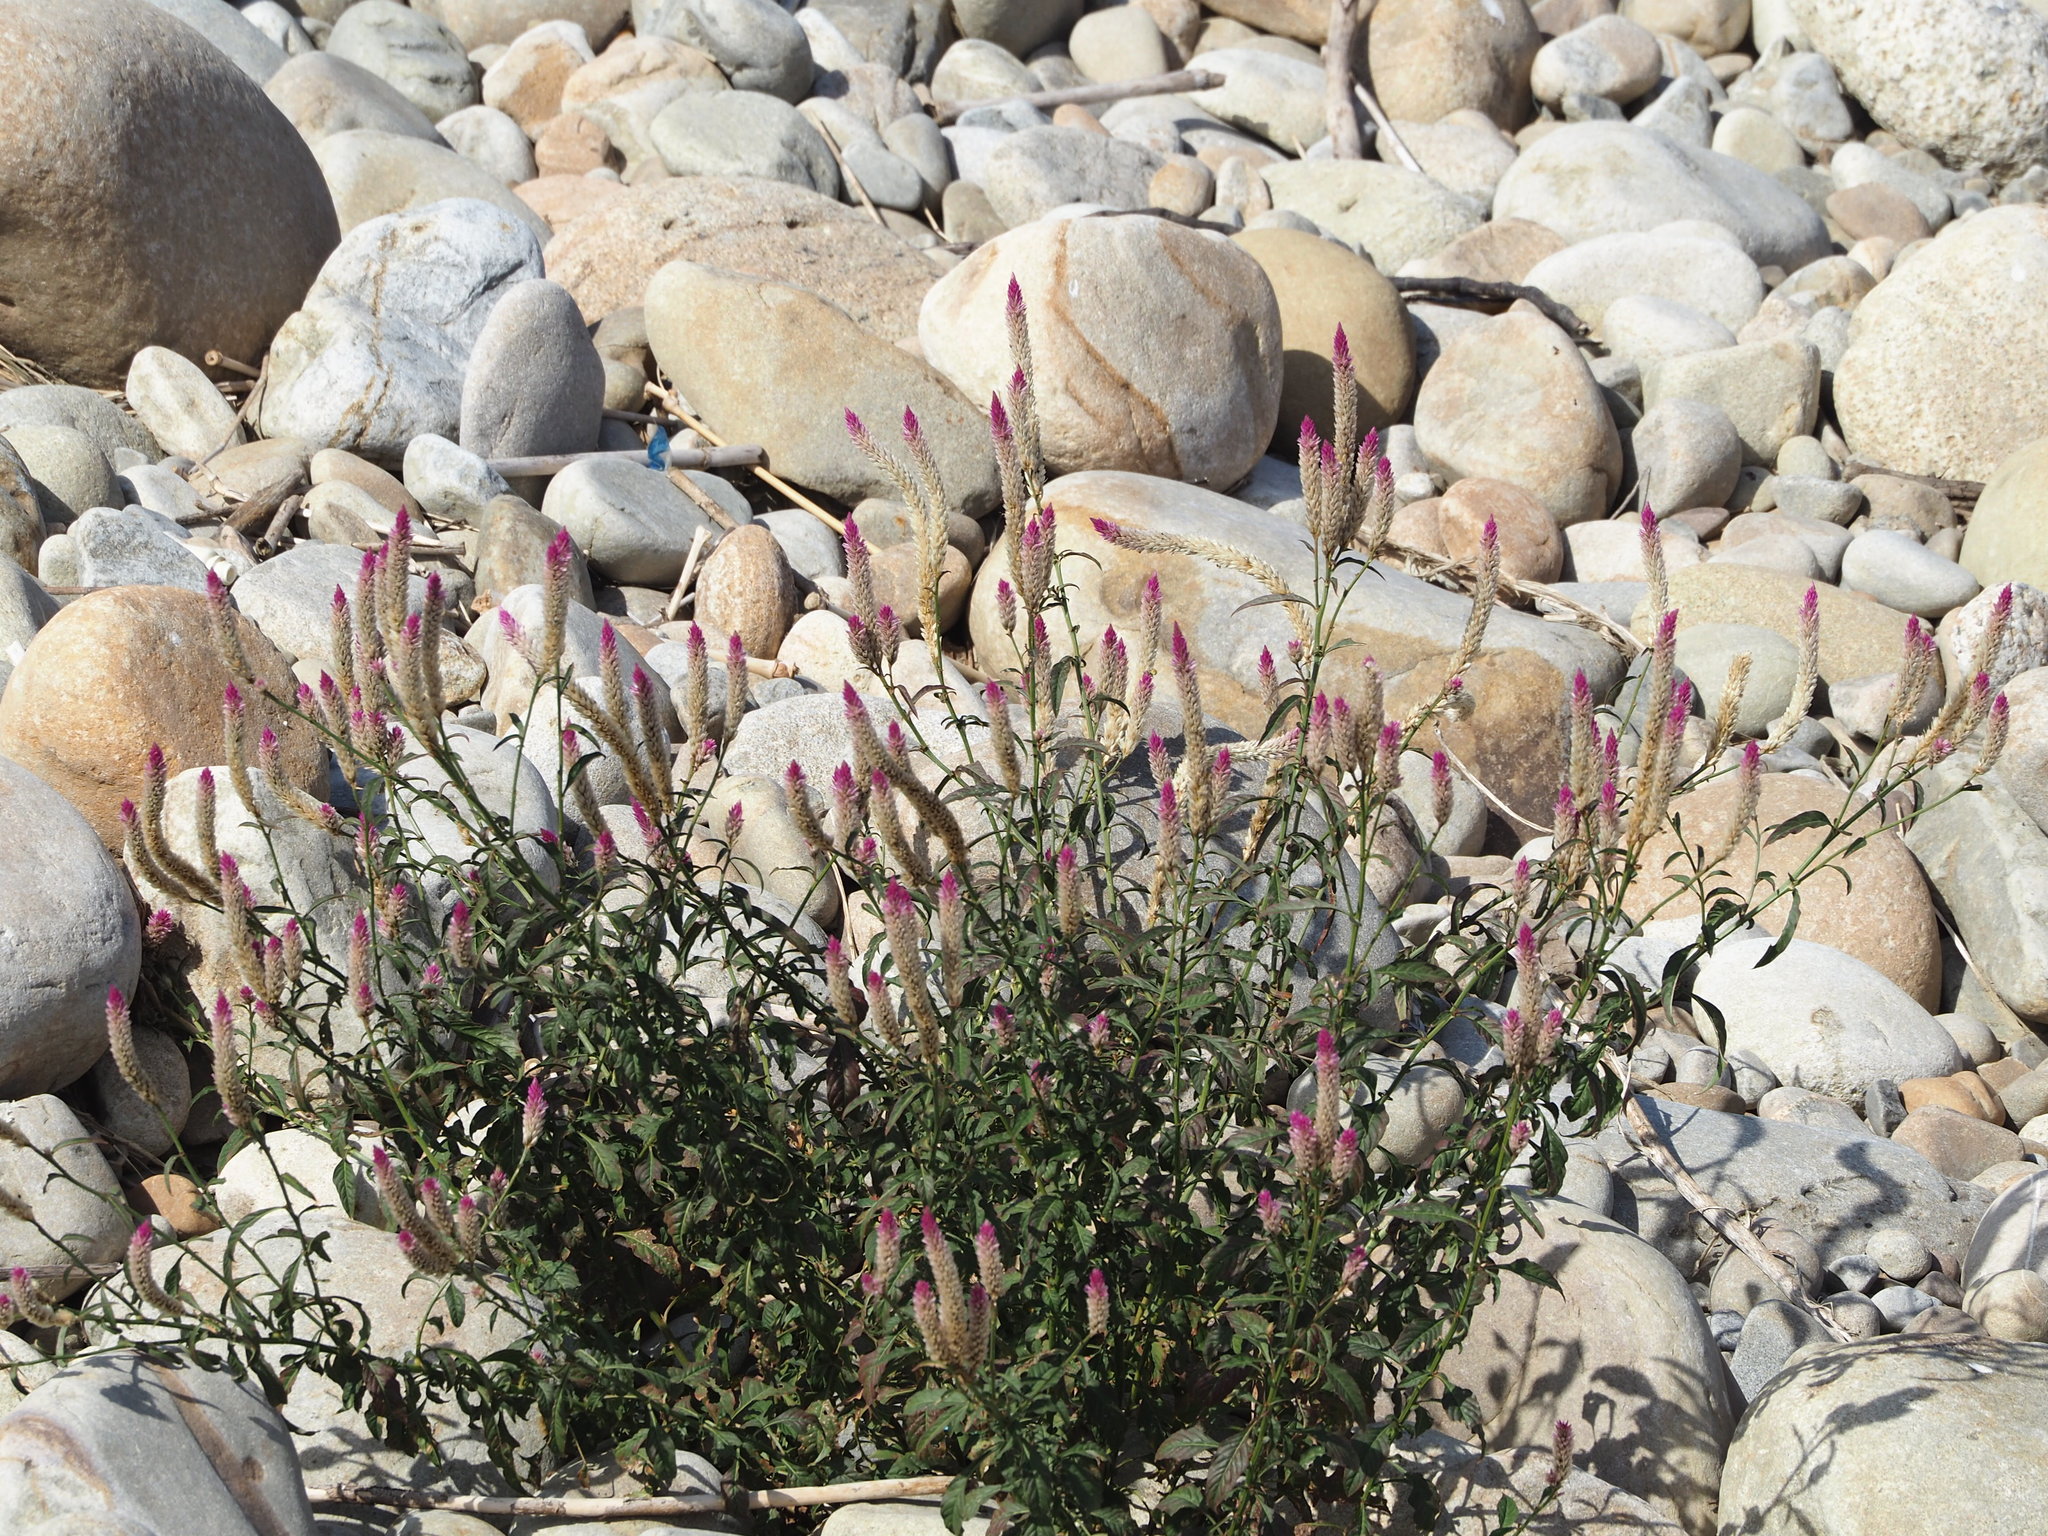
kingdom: Plantae
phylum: Tracheophyta
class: Magnoliopsida
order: Caryophyllales
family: Amaranthaceae
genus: Celosia
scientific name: Celosia argentea
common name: Feather cockscomb
